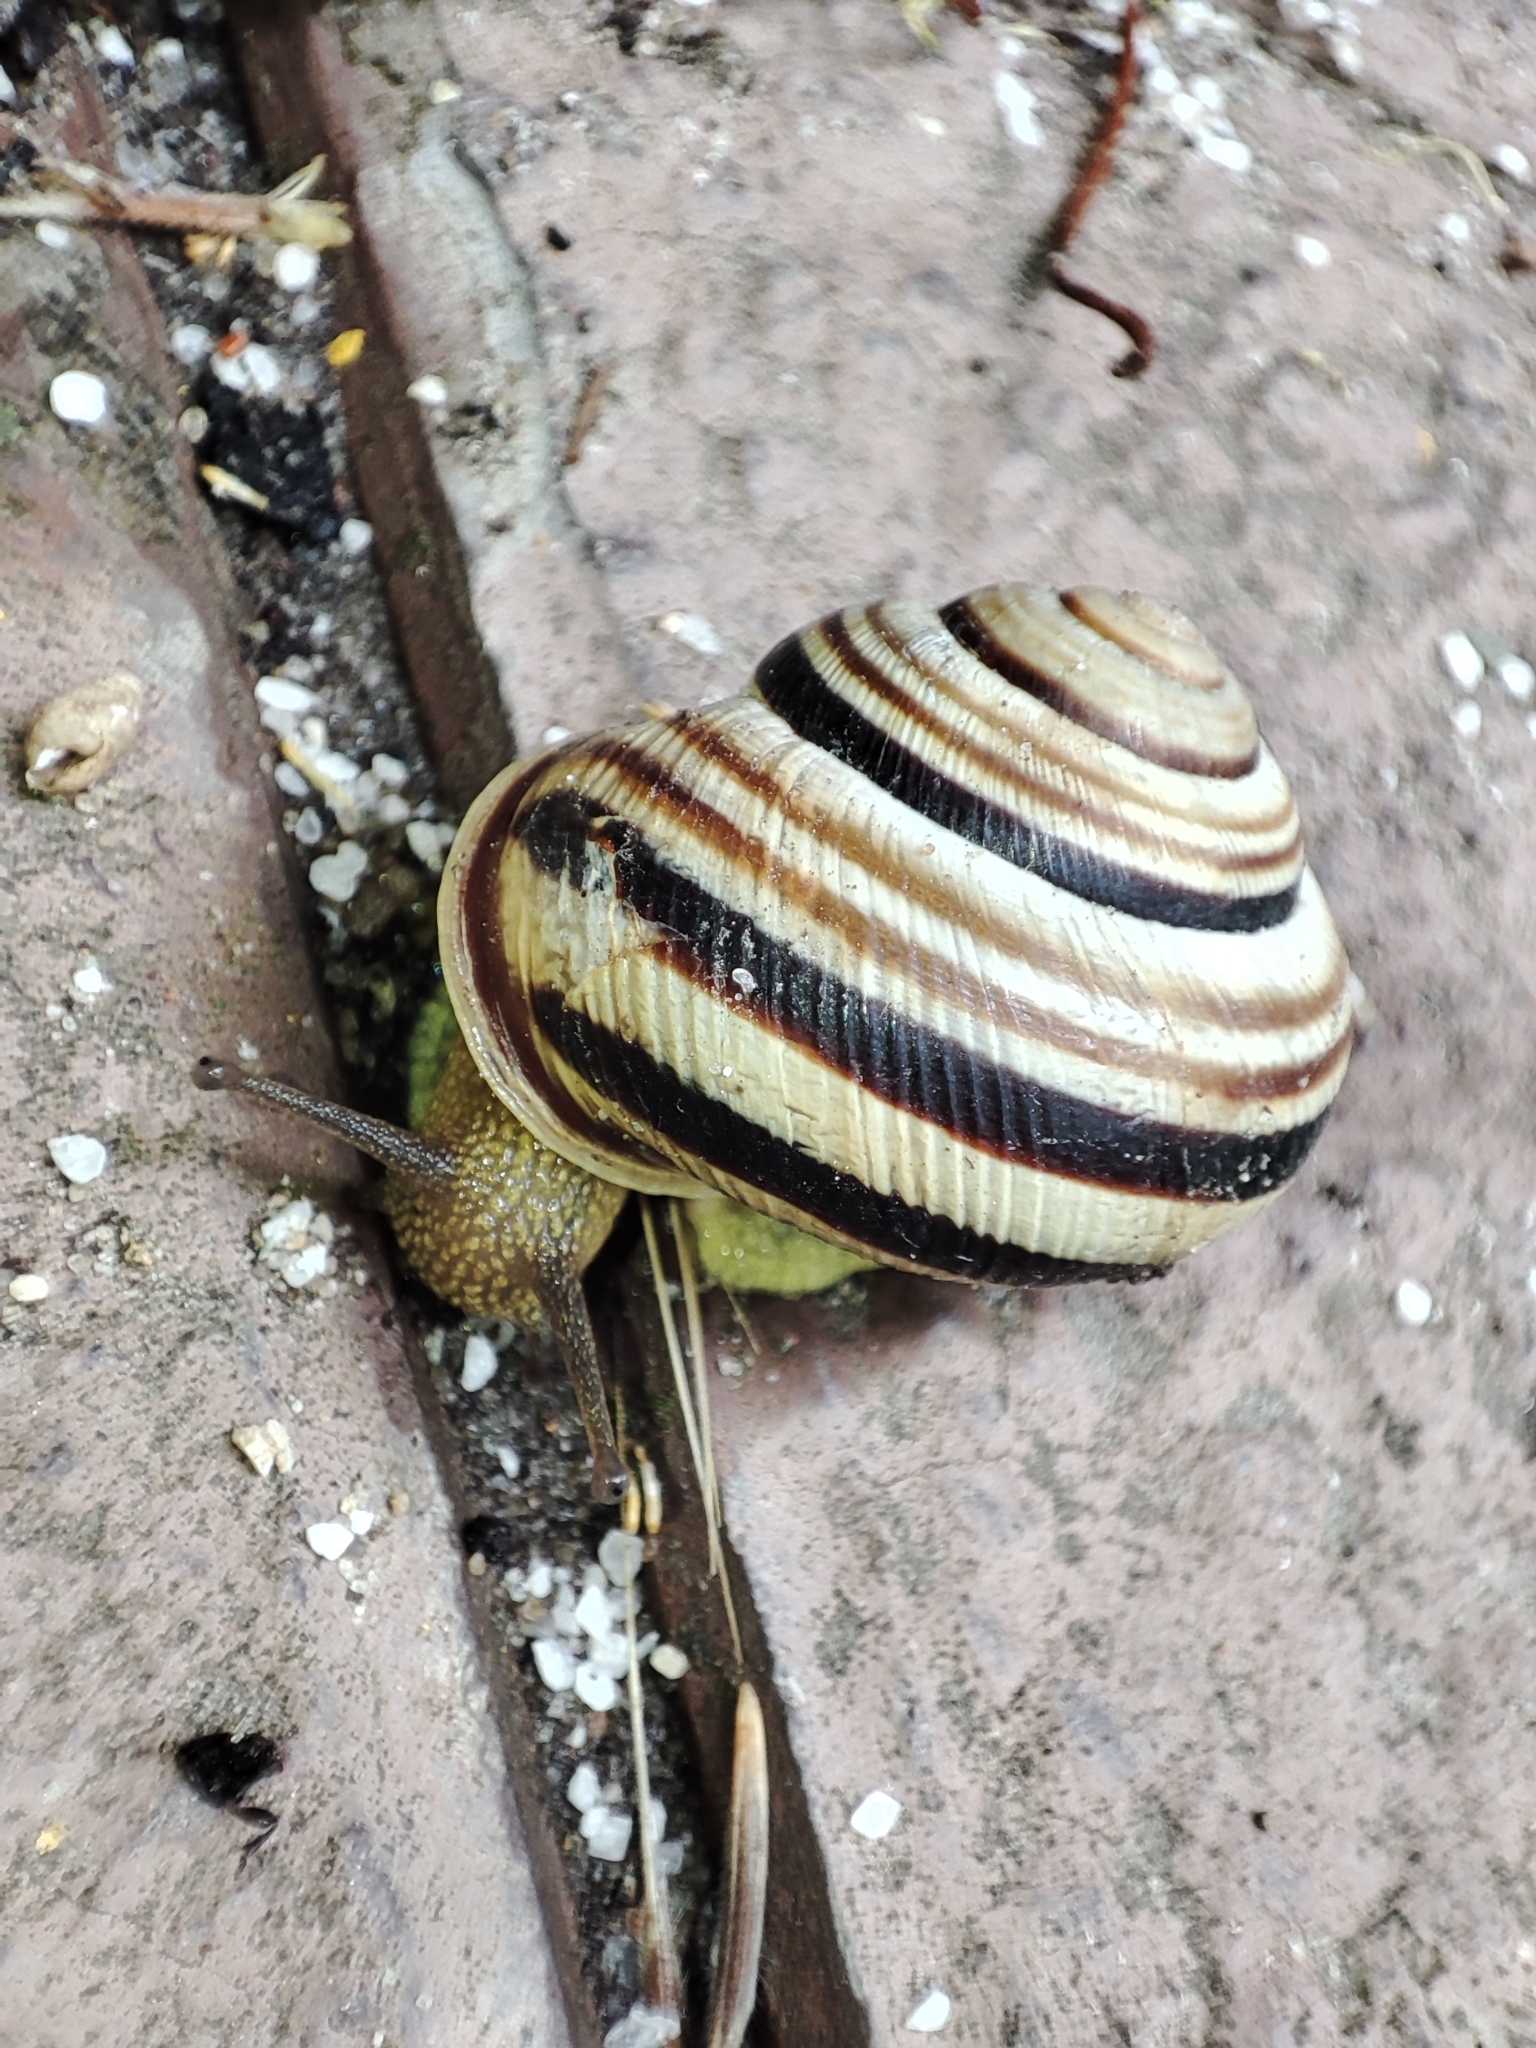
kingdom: Animalia
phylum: Mollusca
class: Gastropoda
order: Stylommatophora
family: Helicidae
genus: Caucasotachea
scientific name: Caucasotachea vindobonensis
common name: European helicid land snail
